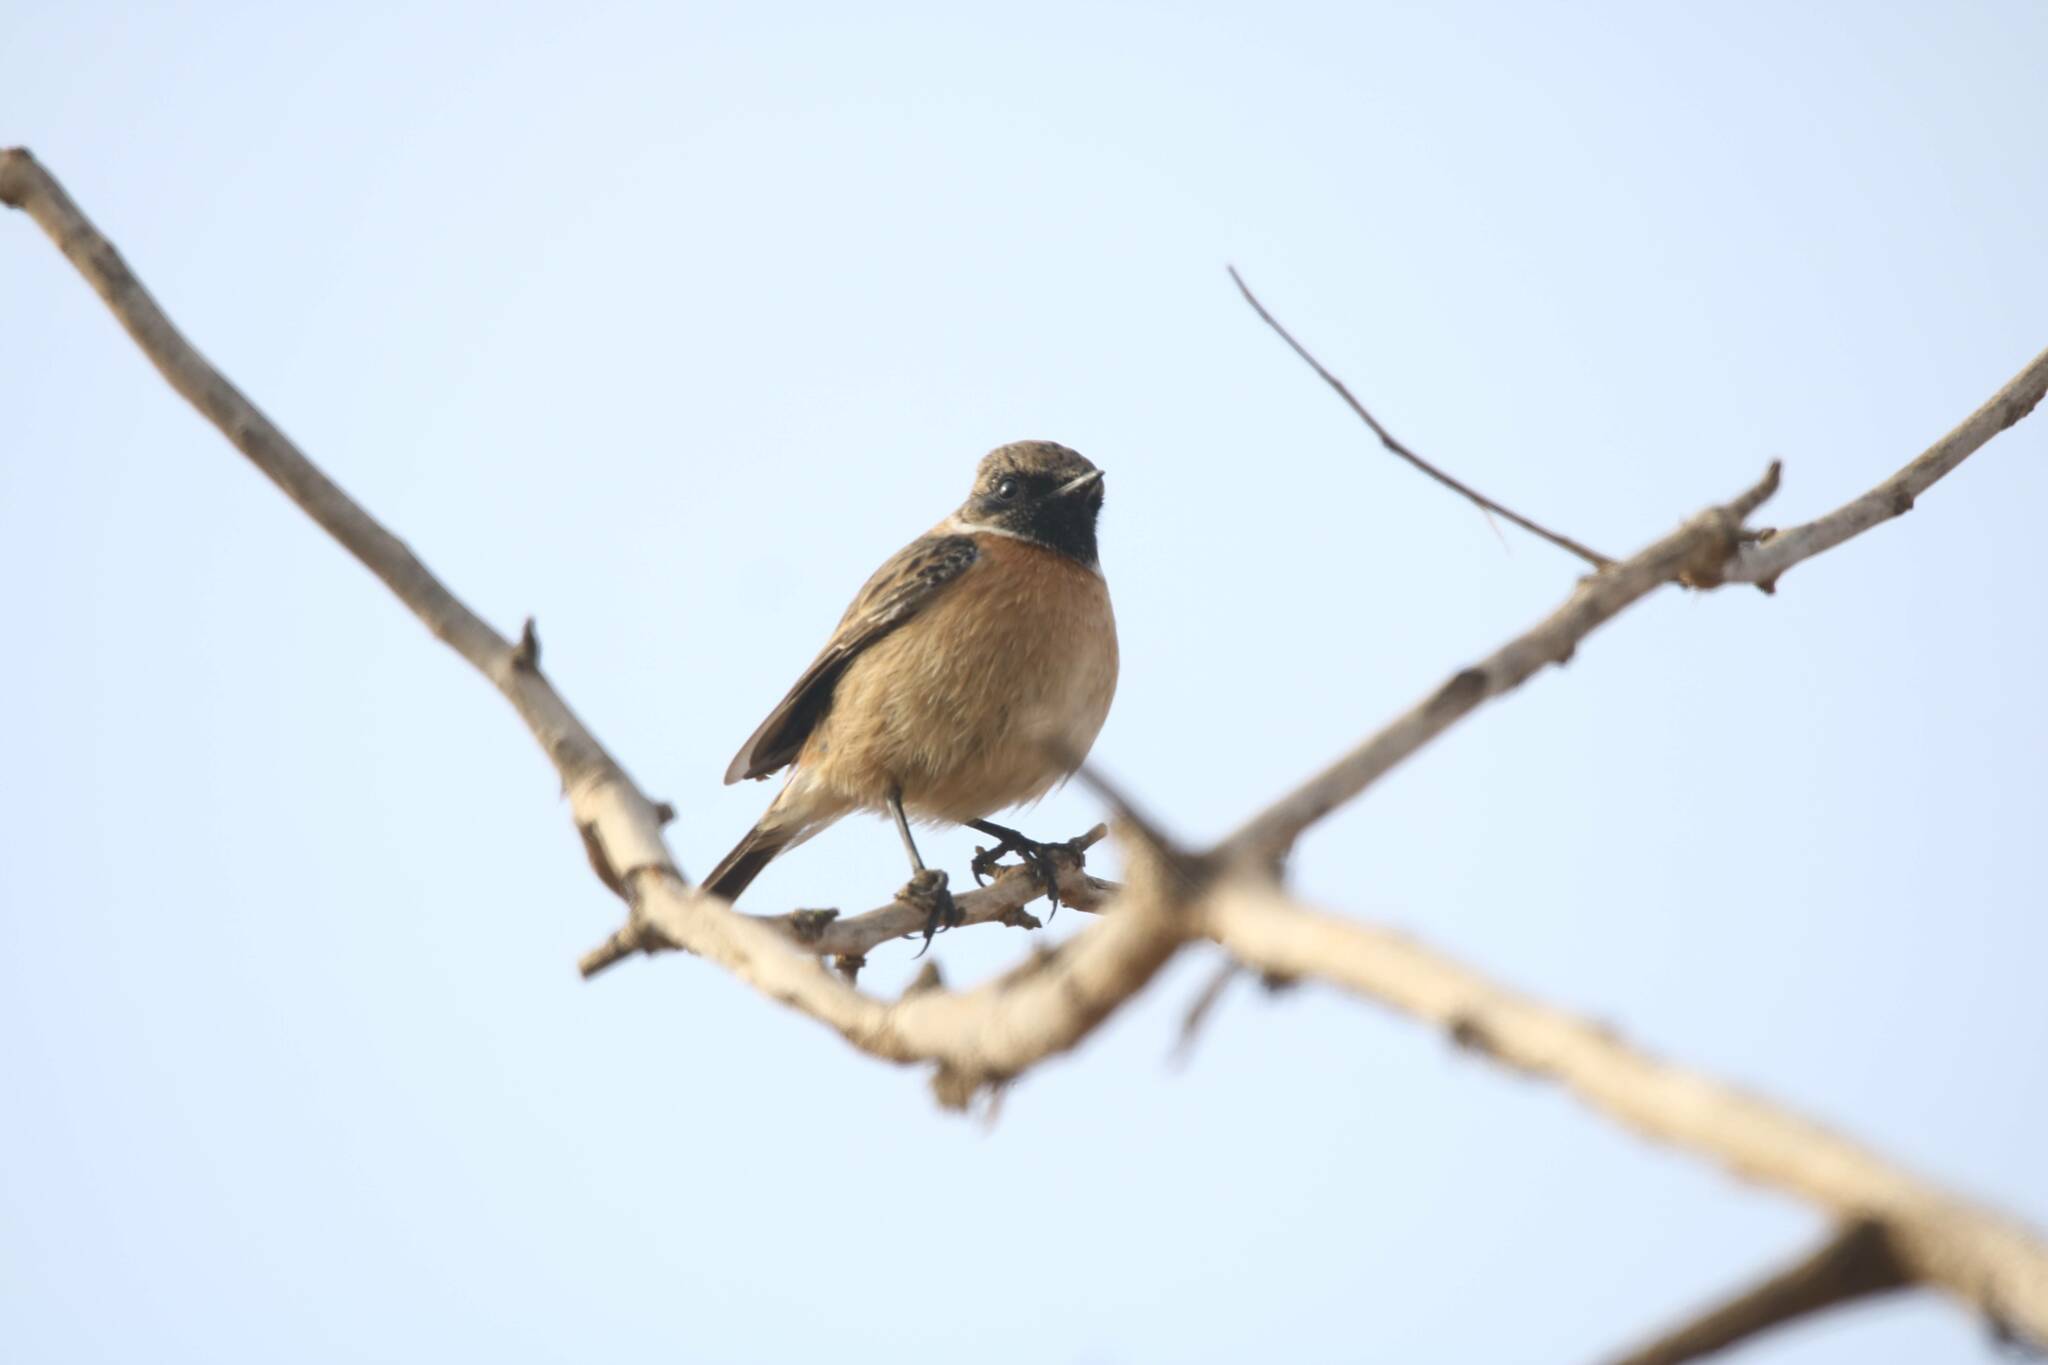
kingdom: Animalia
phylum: Chordata
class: Aves
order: Passeriformes
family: Muscicapidae
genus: Saxicola
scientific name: Saxicola rubicola
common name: European stonechat
